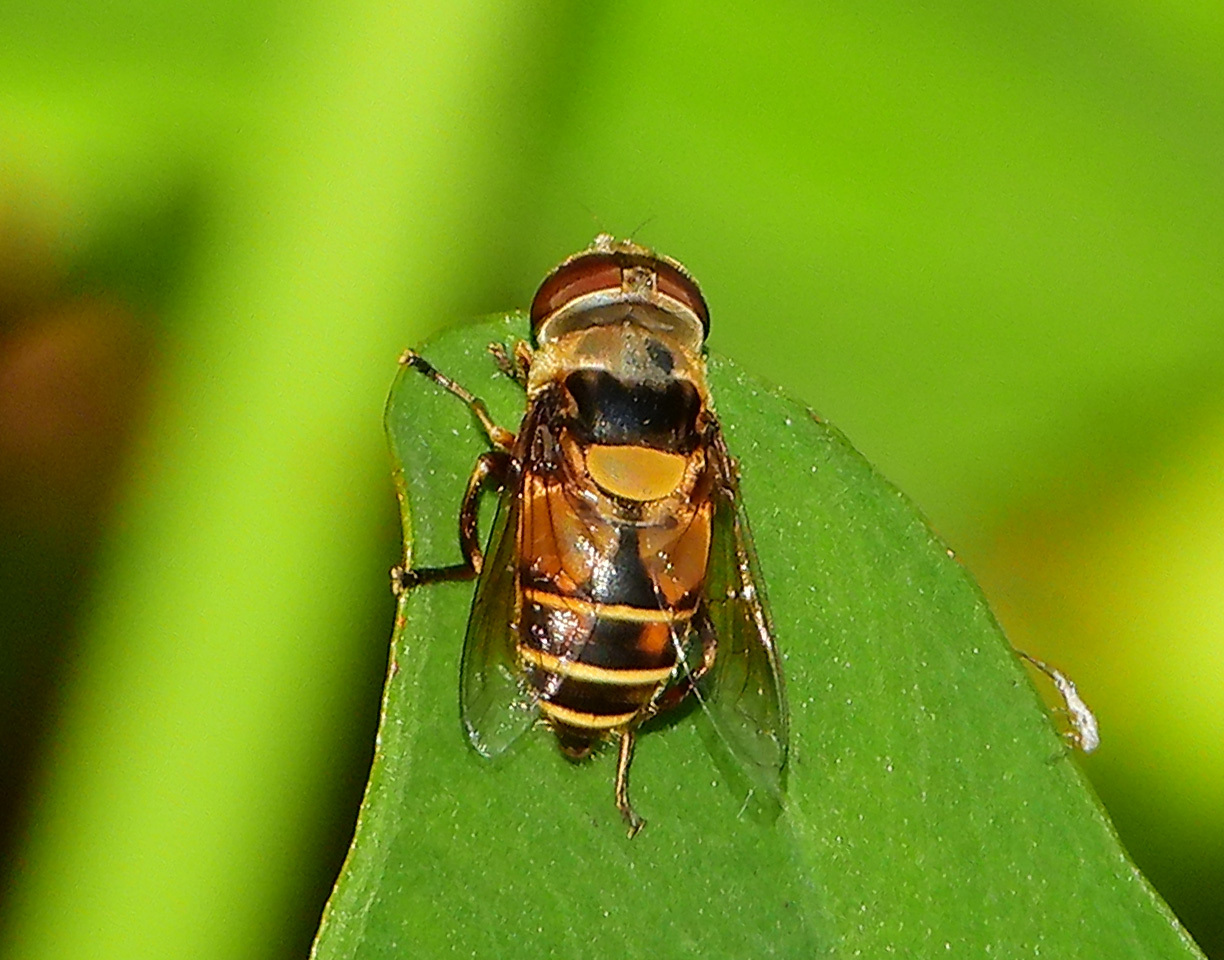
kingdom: Animalia
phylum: Arthropoda
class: Insecta
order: Diptera
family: Syrphidae
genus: Palpada
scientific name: Palpada pusilla
